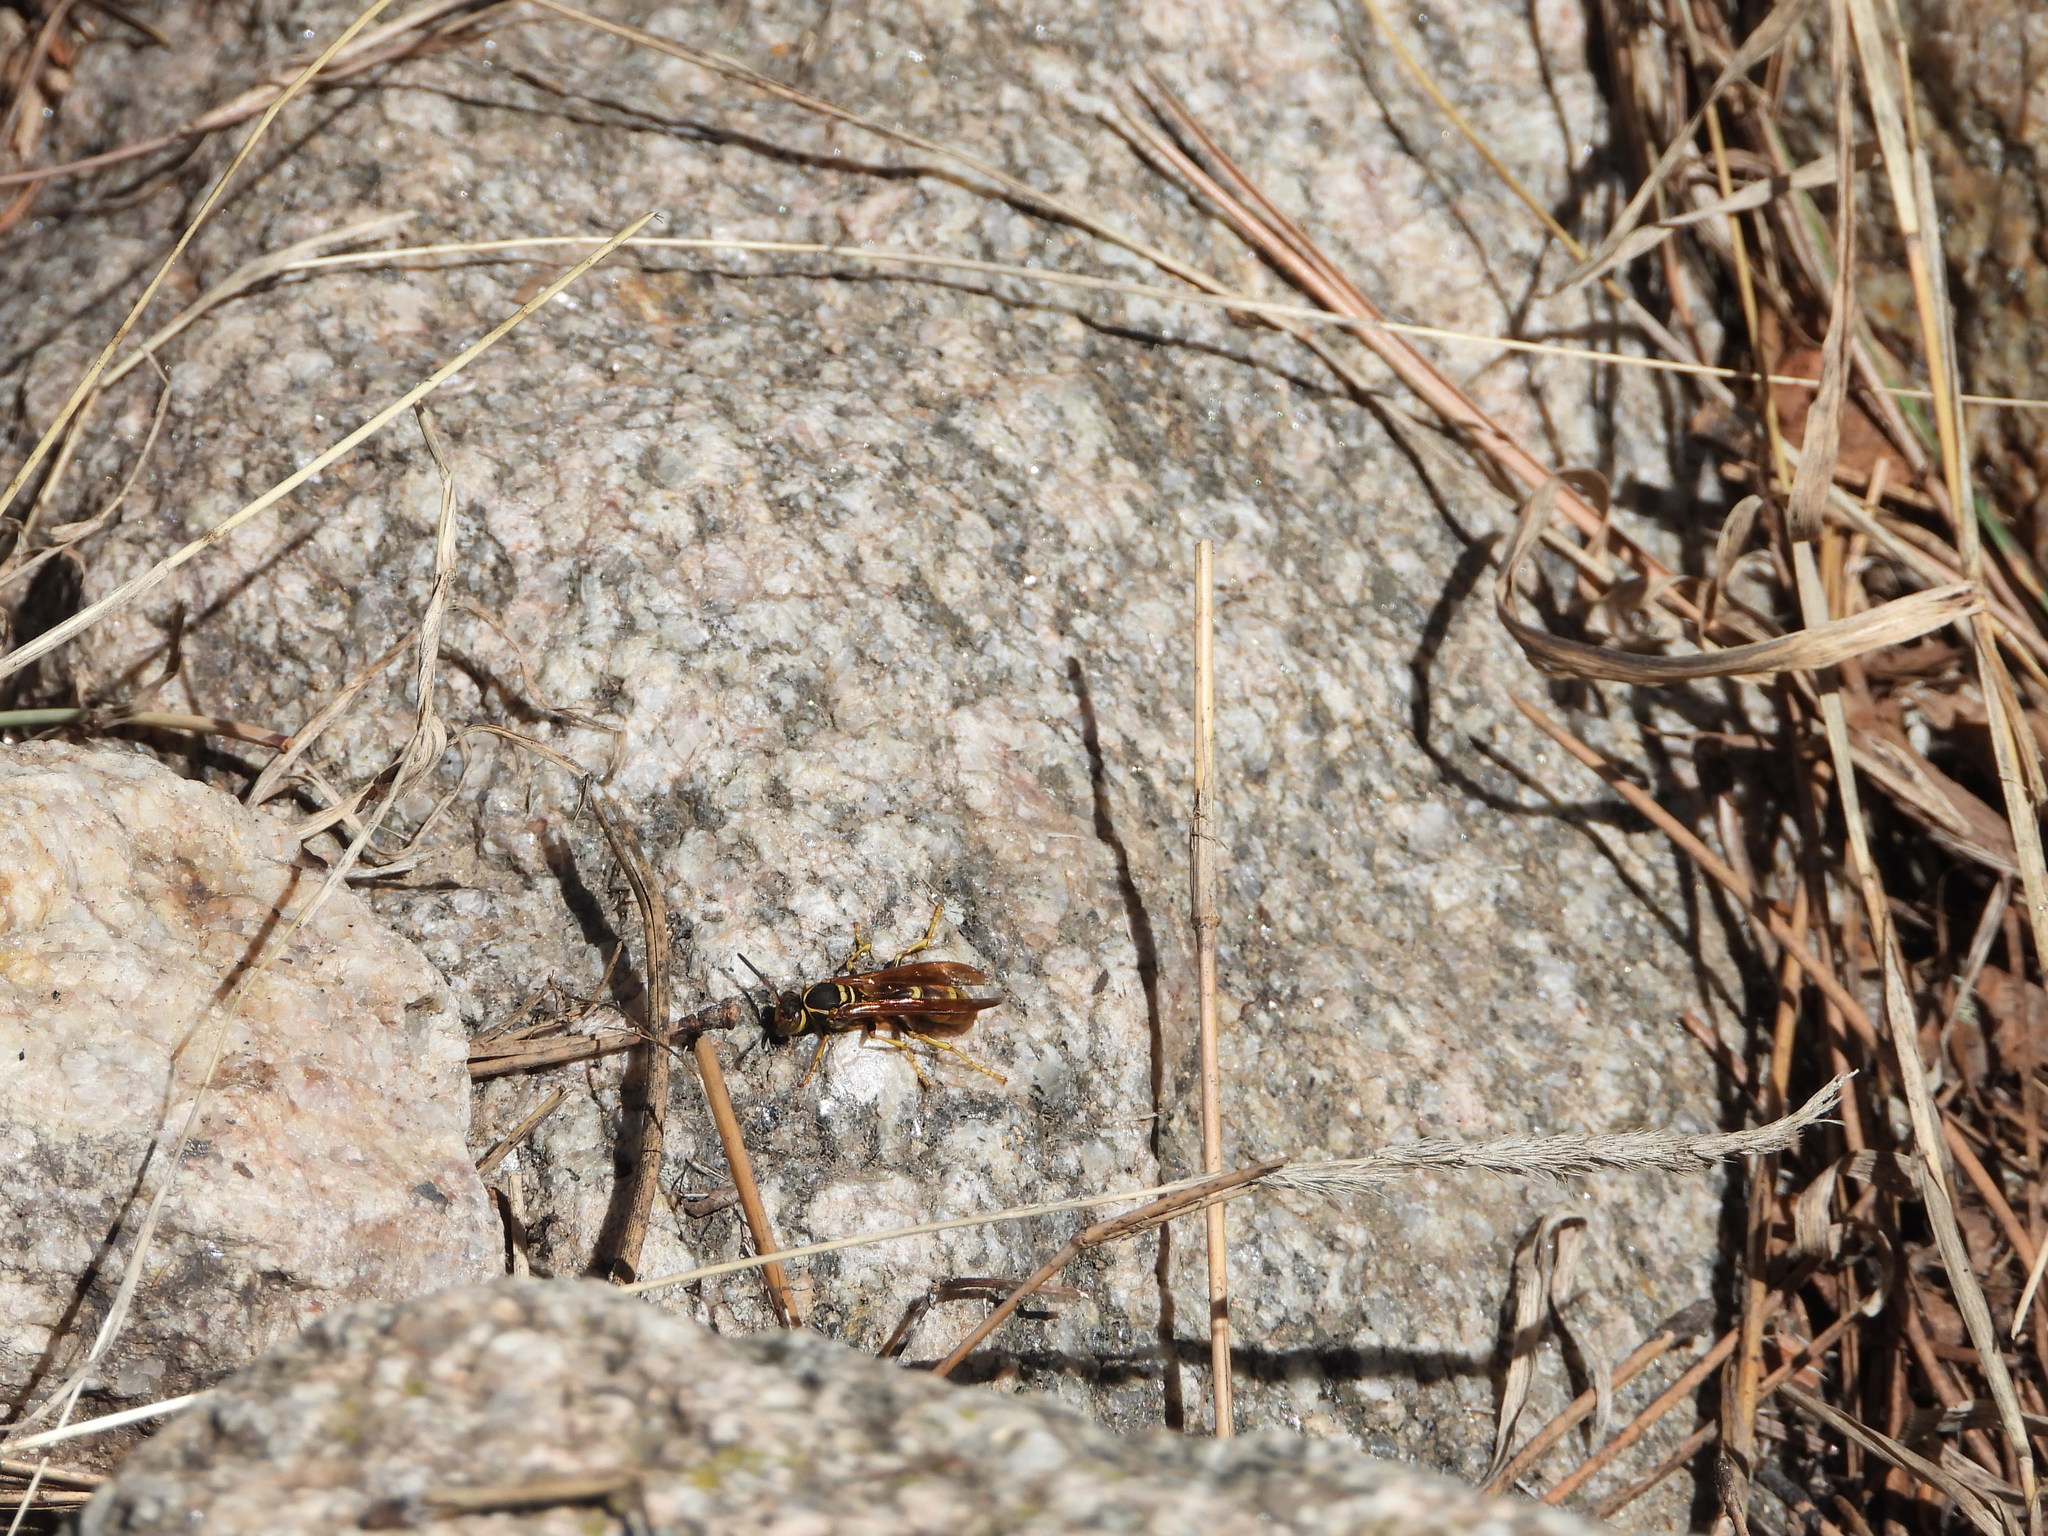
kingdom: Animalia
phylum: Arthropoda
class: Insecta
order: Hymenoptera
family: Vespidae
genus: Mischocyttarus
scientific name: Mischocyttarus flavitarsis
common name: Wasp
